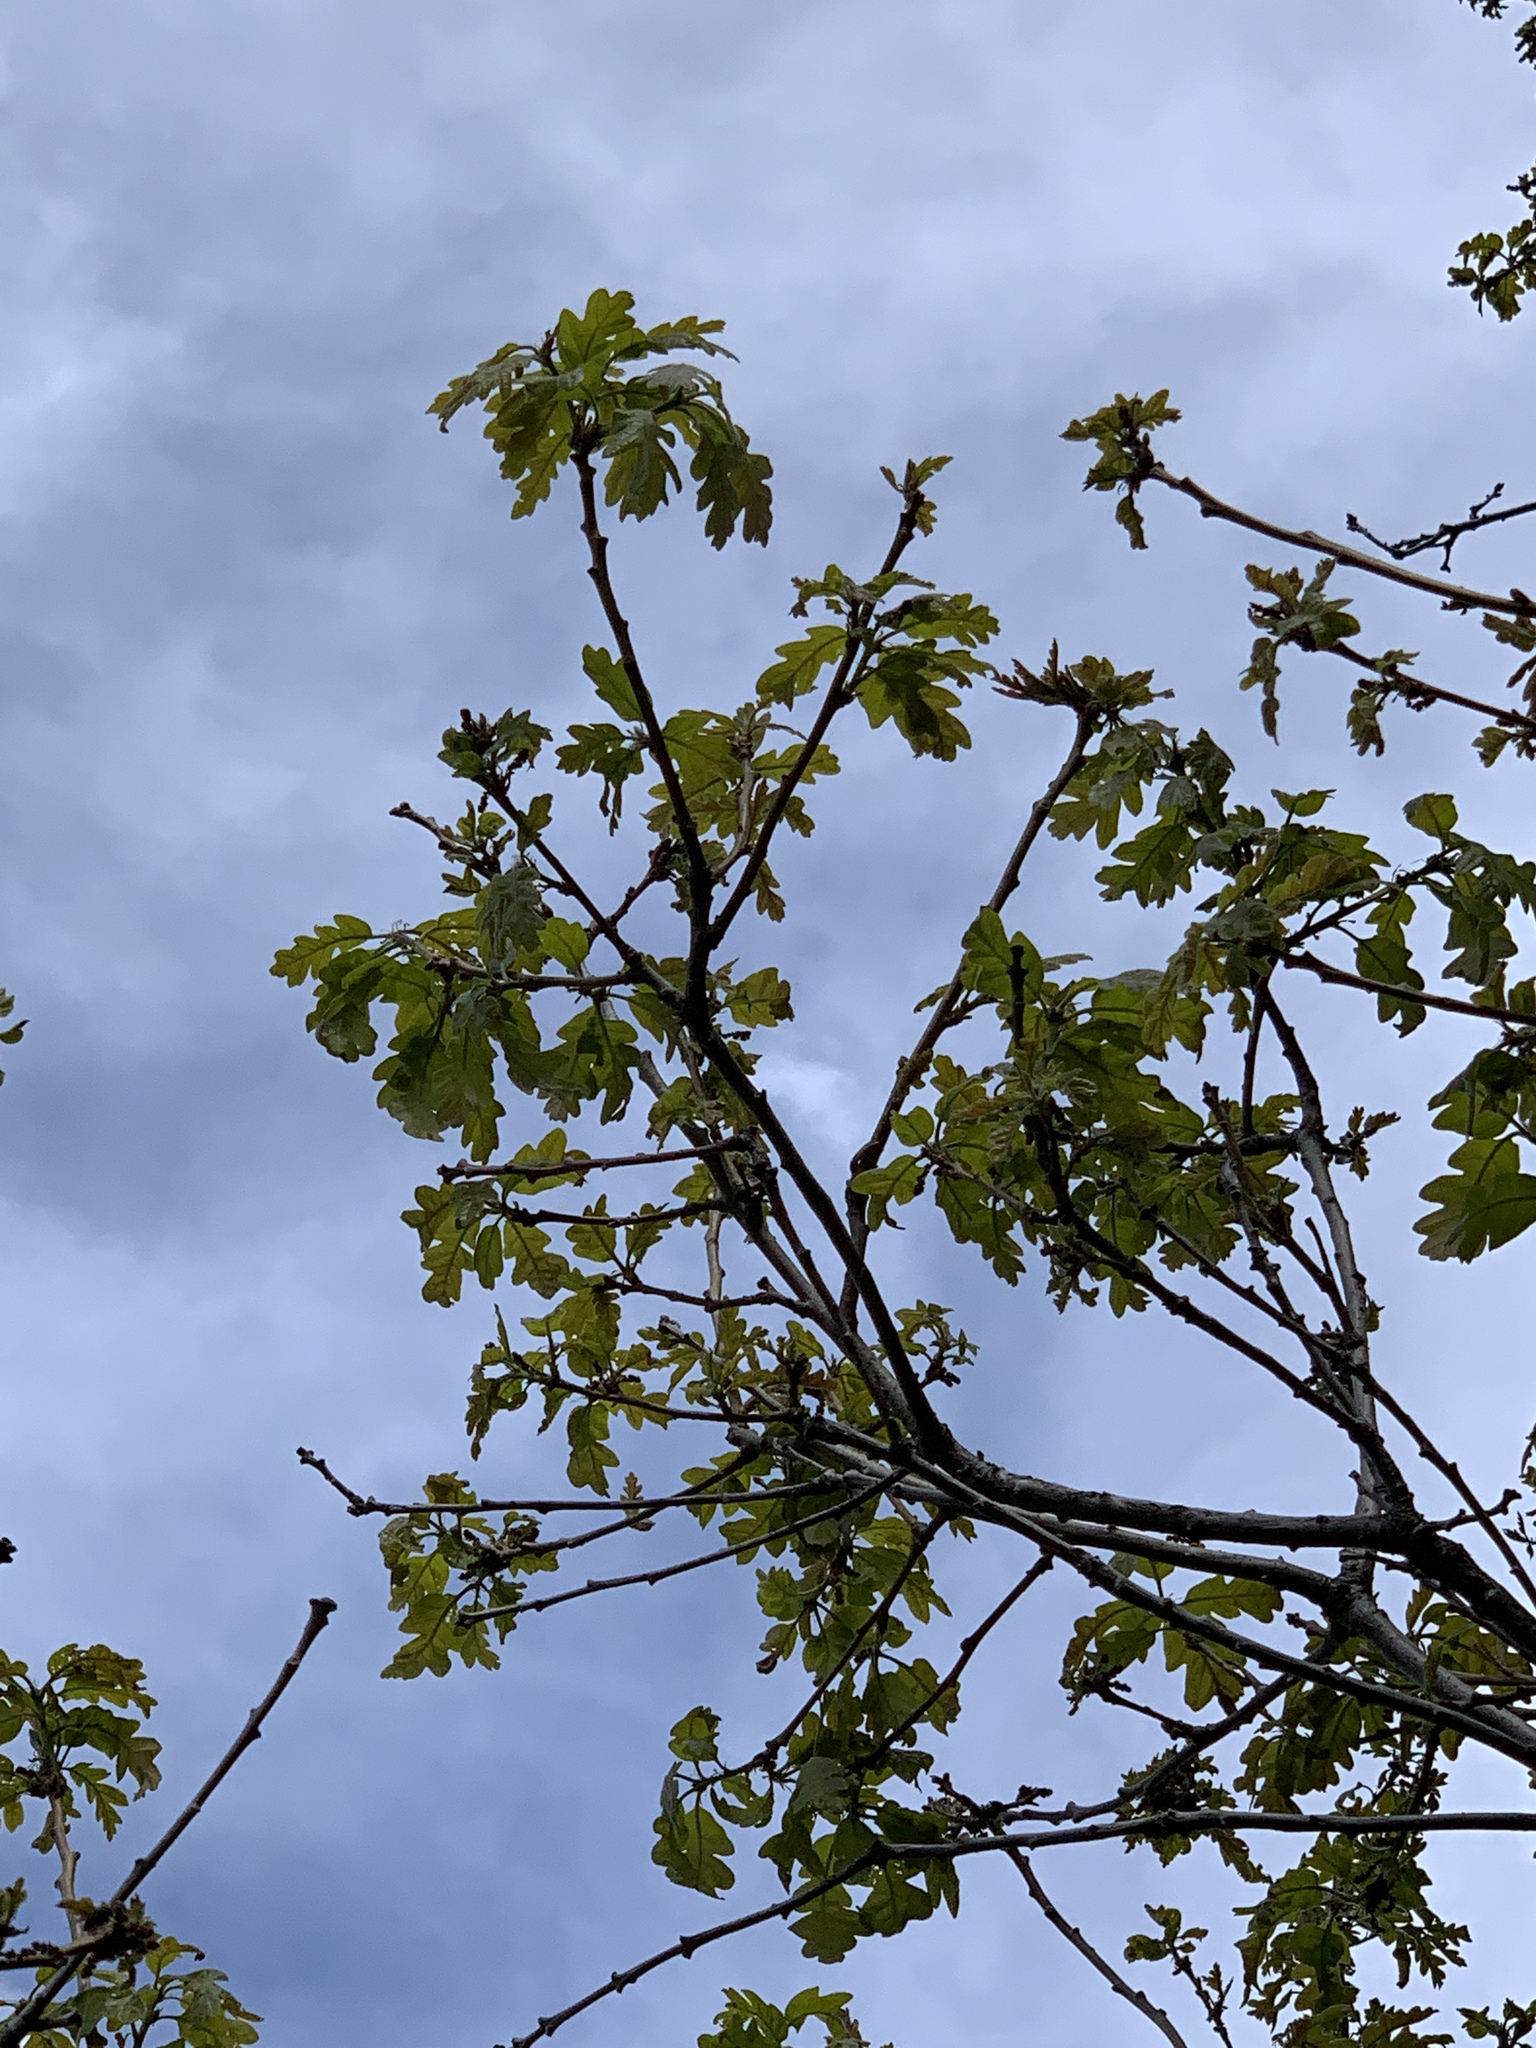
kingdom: Plantae
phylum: Tracheophyta
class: Magnoliopsida
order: Fagales
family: Fagaceae
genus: Quercus
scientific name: Quercus undulata
